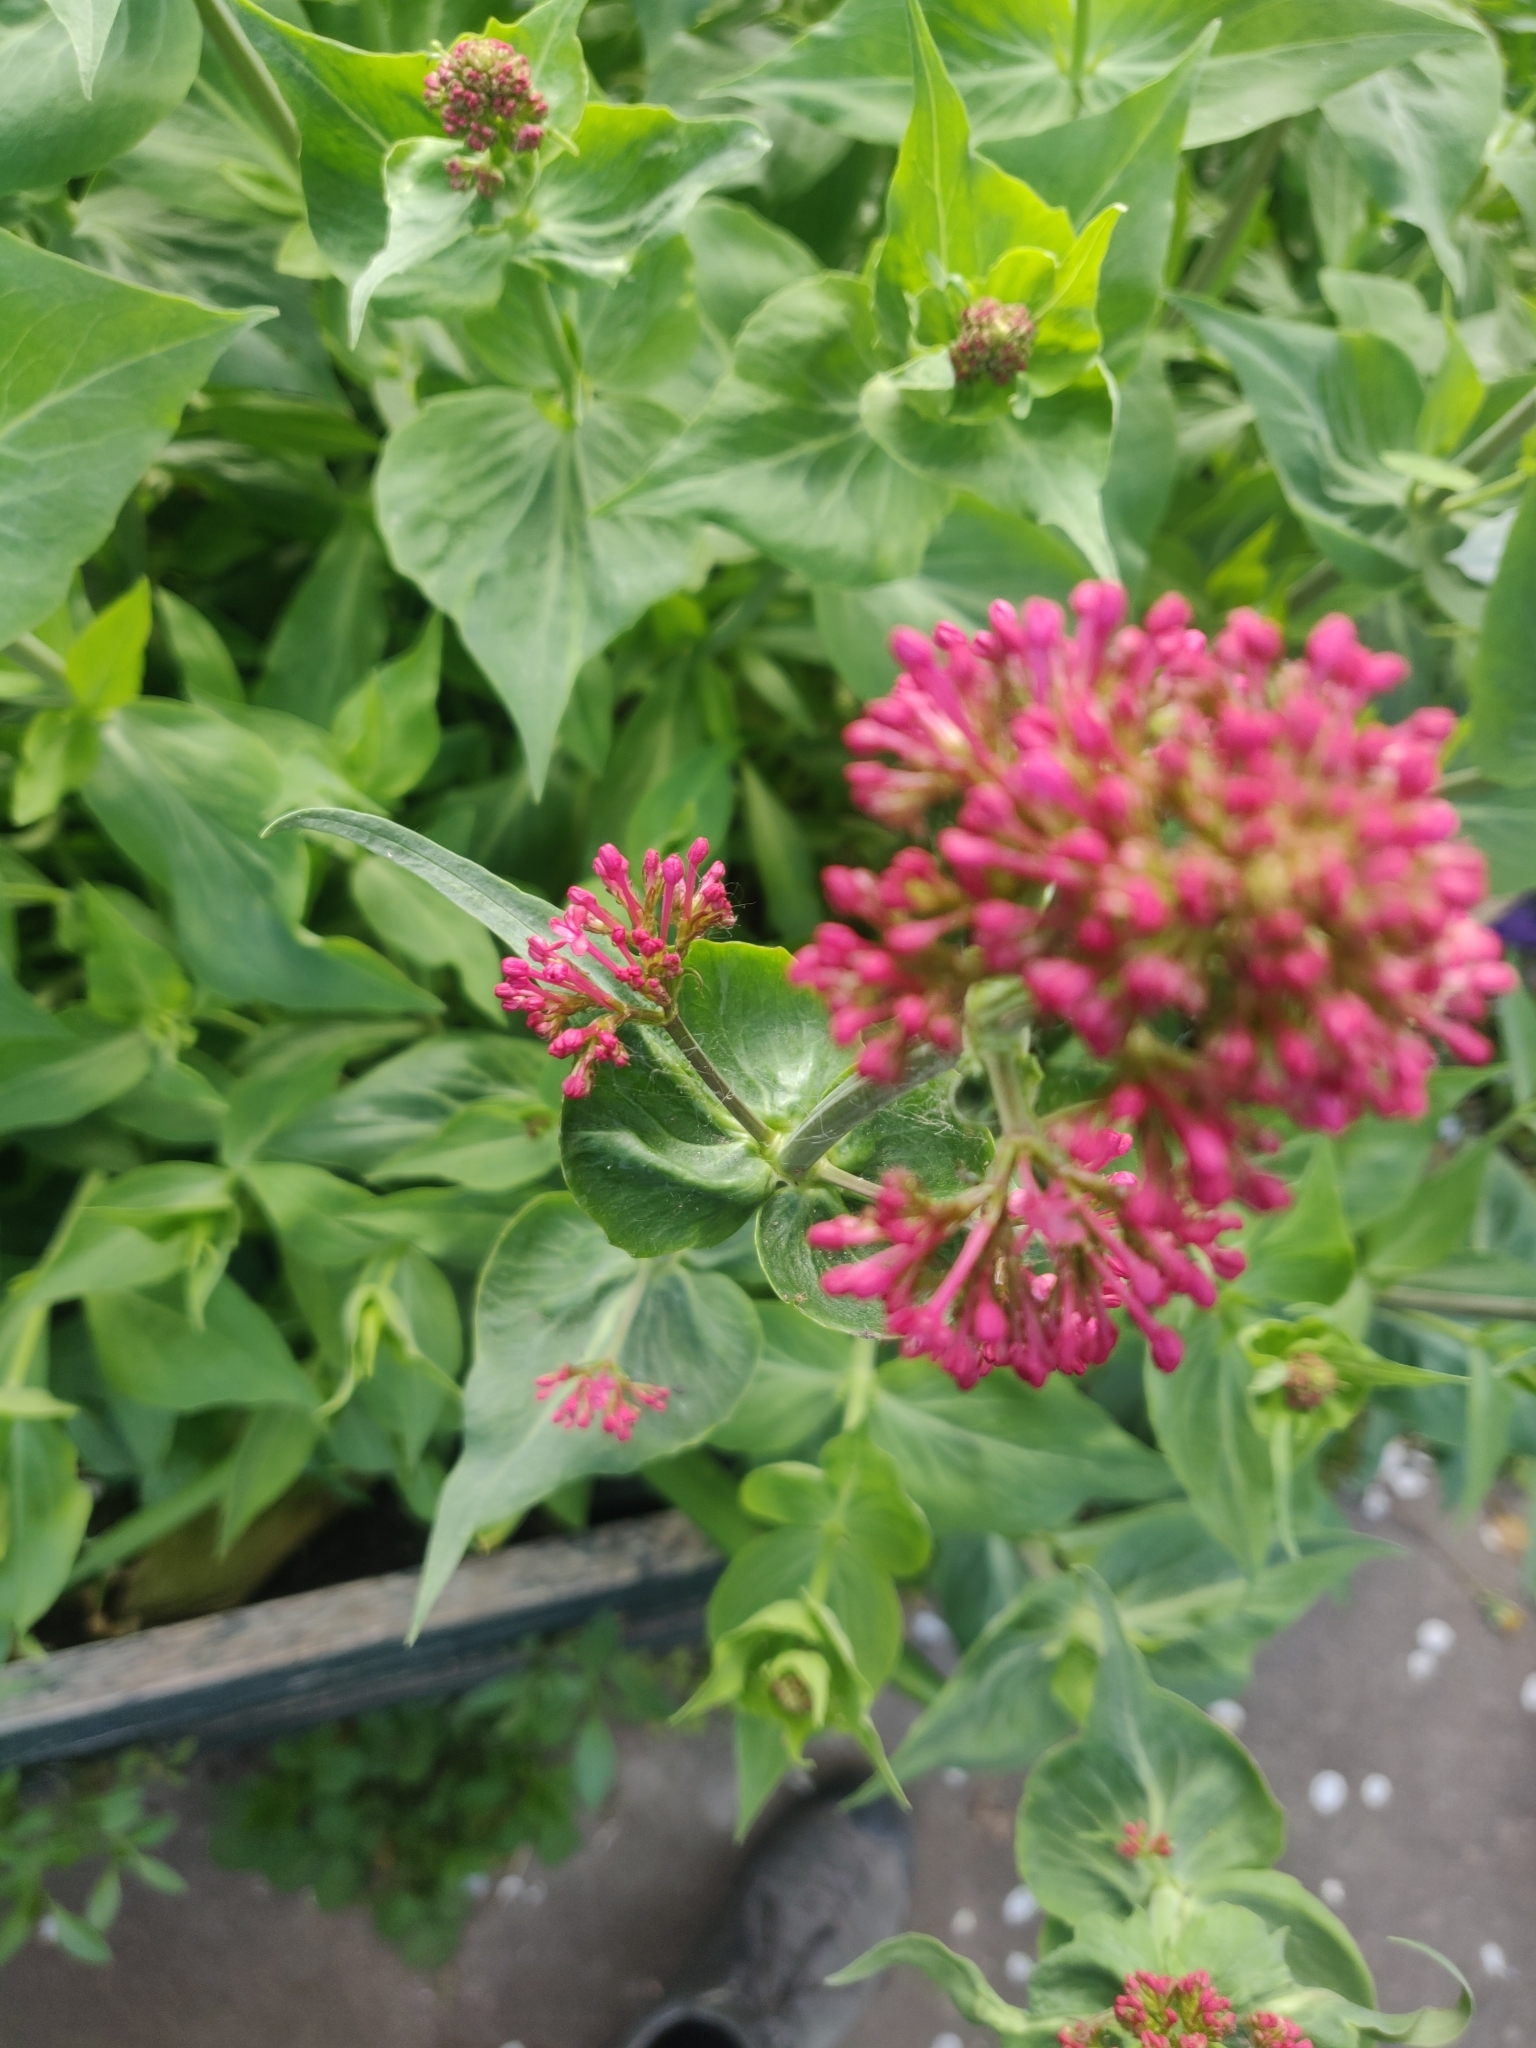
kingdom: Plantae
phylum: Tracheophyta
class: Magnoliopsida
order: Dipsacales
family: Caprifoliaceae
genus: Centranthus
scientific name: Centranthus ruber
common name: Red valerian
